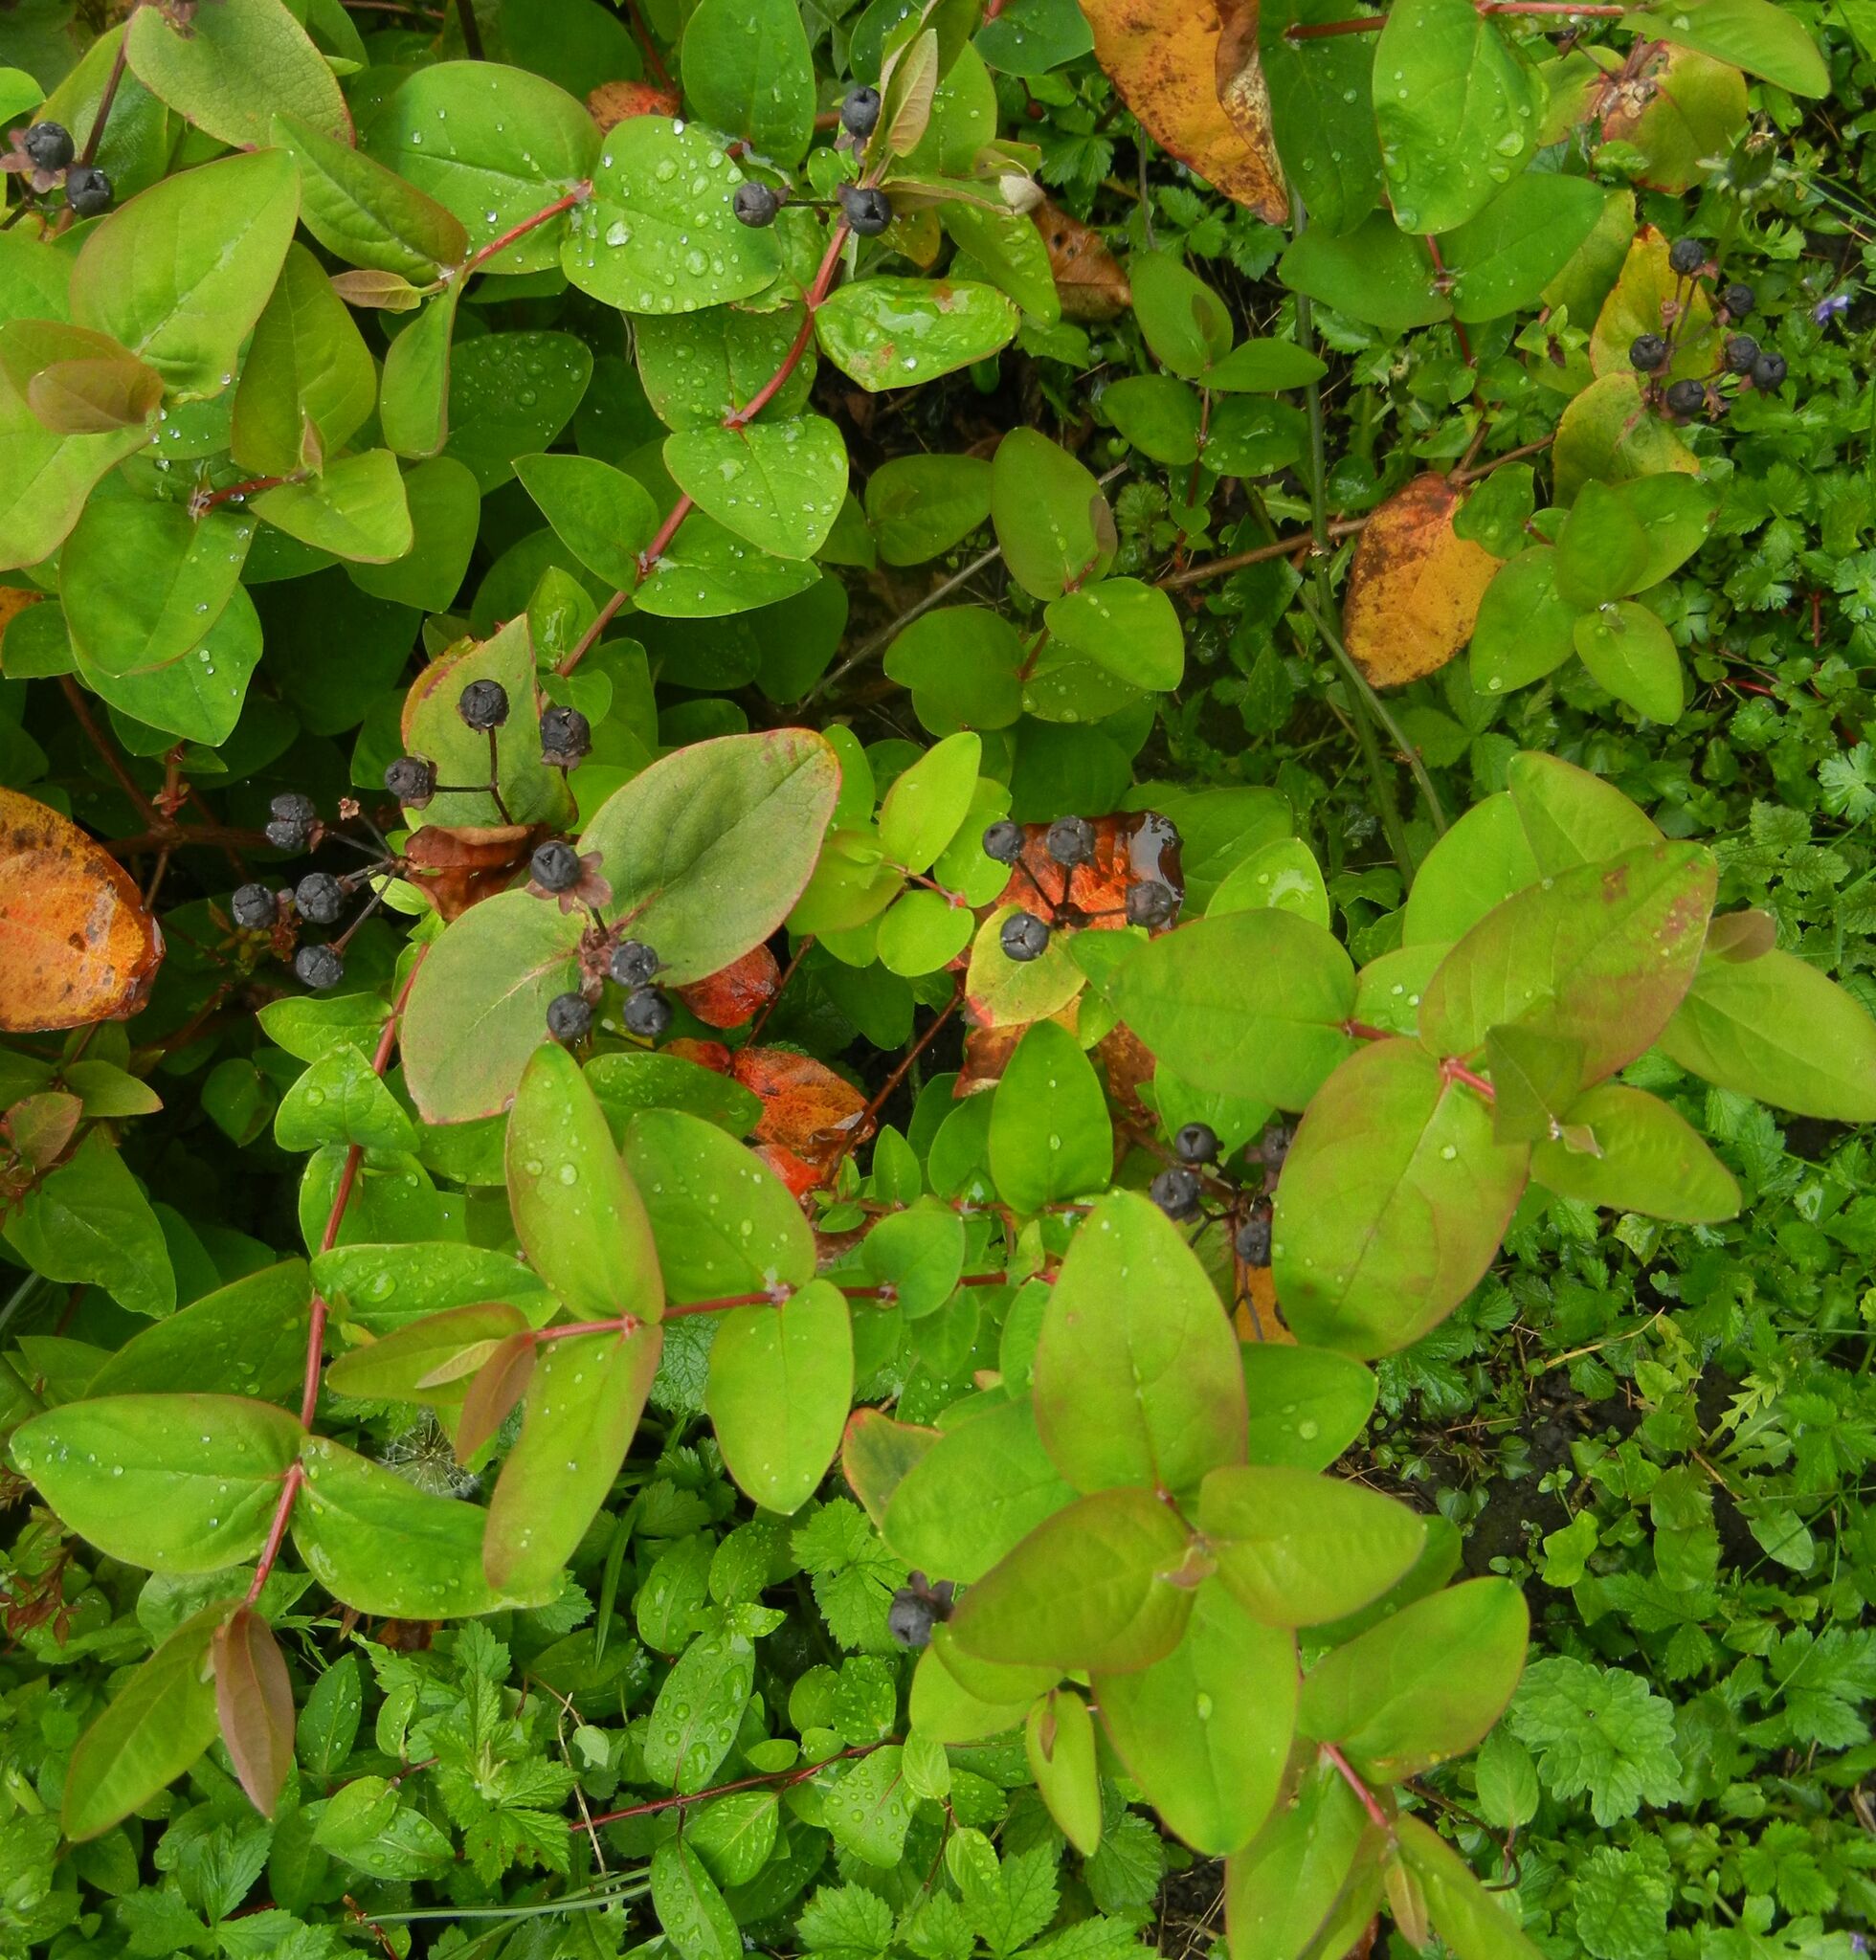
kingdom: Plantae
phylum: Tracheophyta
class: Magnoliopsida
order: Malpighiales
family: Hypericaceae
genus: Hypericum
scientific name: Hypericum androsaemum
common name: Sweet-amber
